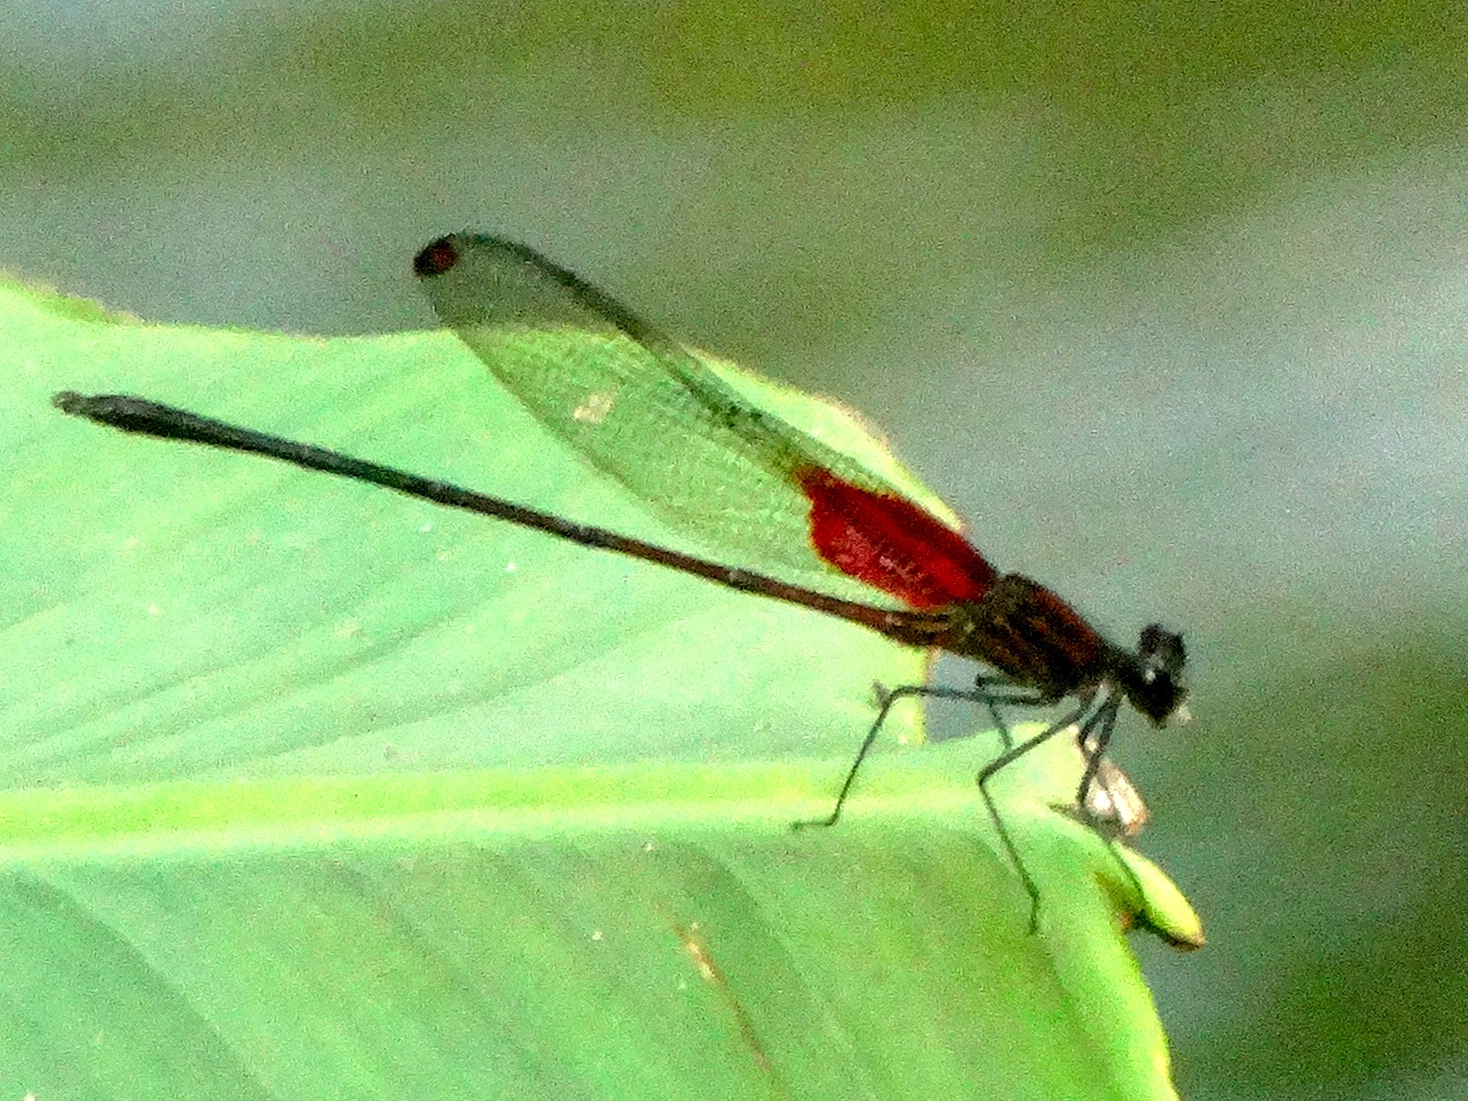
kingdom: Animalia
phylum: Arthropoda
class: Insecta
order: Odonata
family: Calopterygidae
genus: Hetaerina
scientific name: Hetaerina occisa
